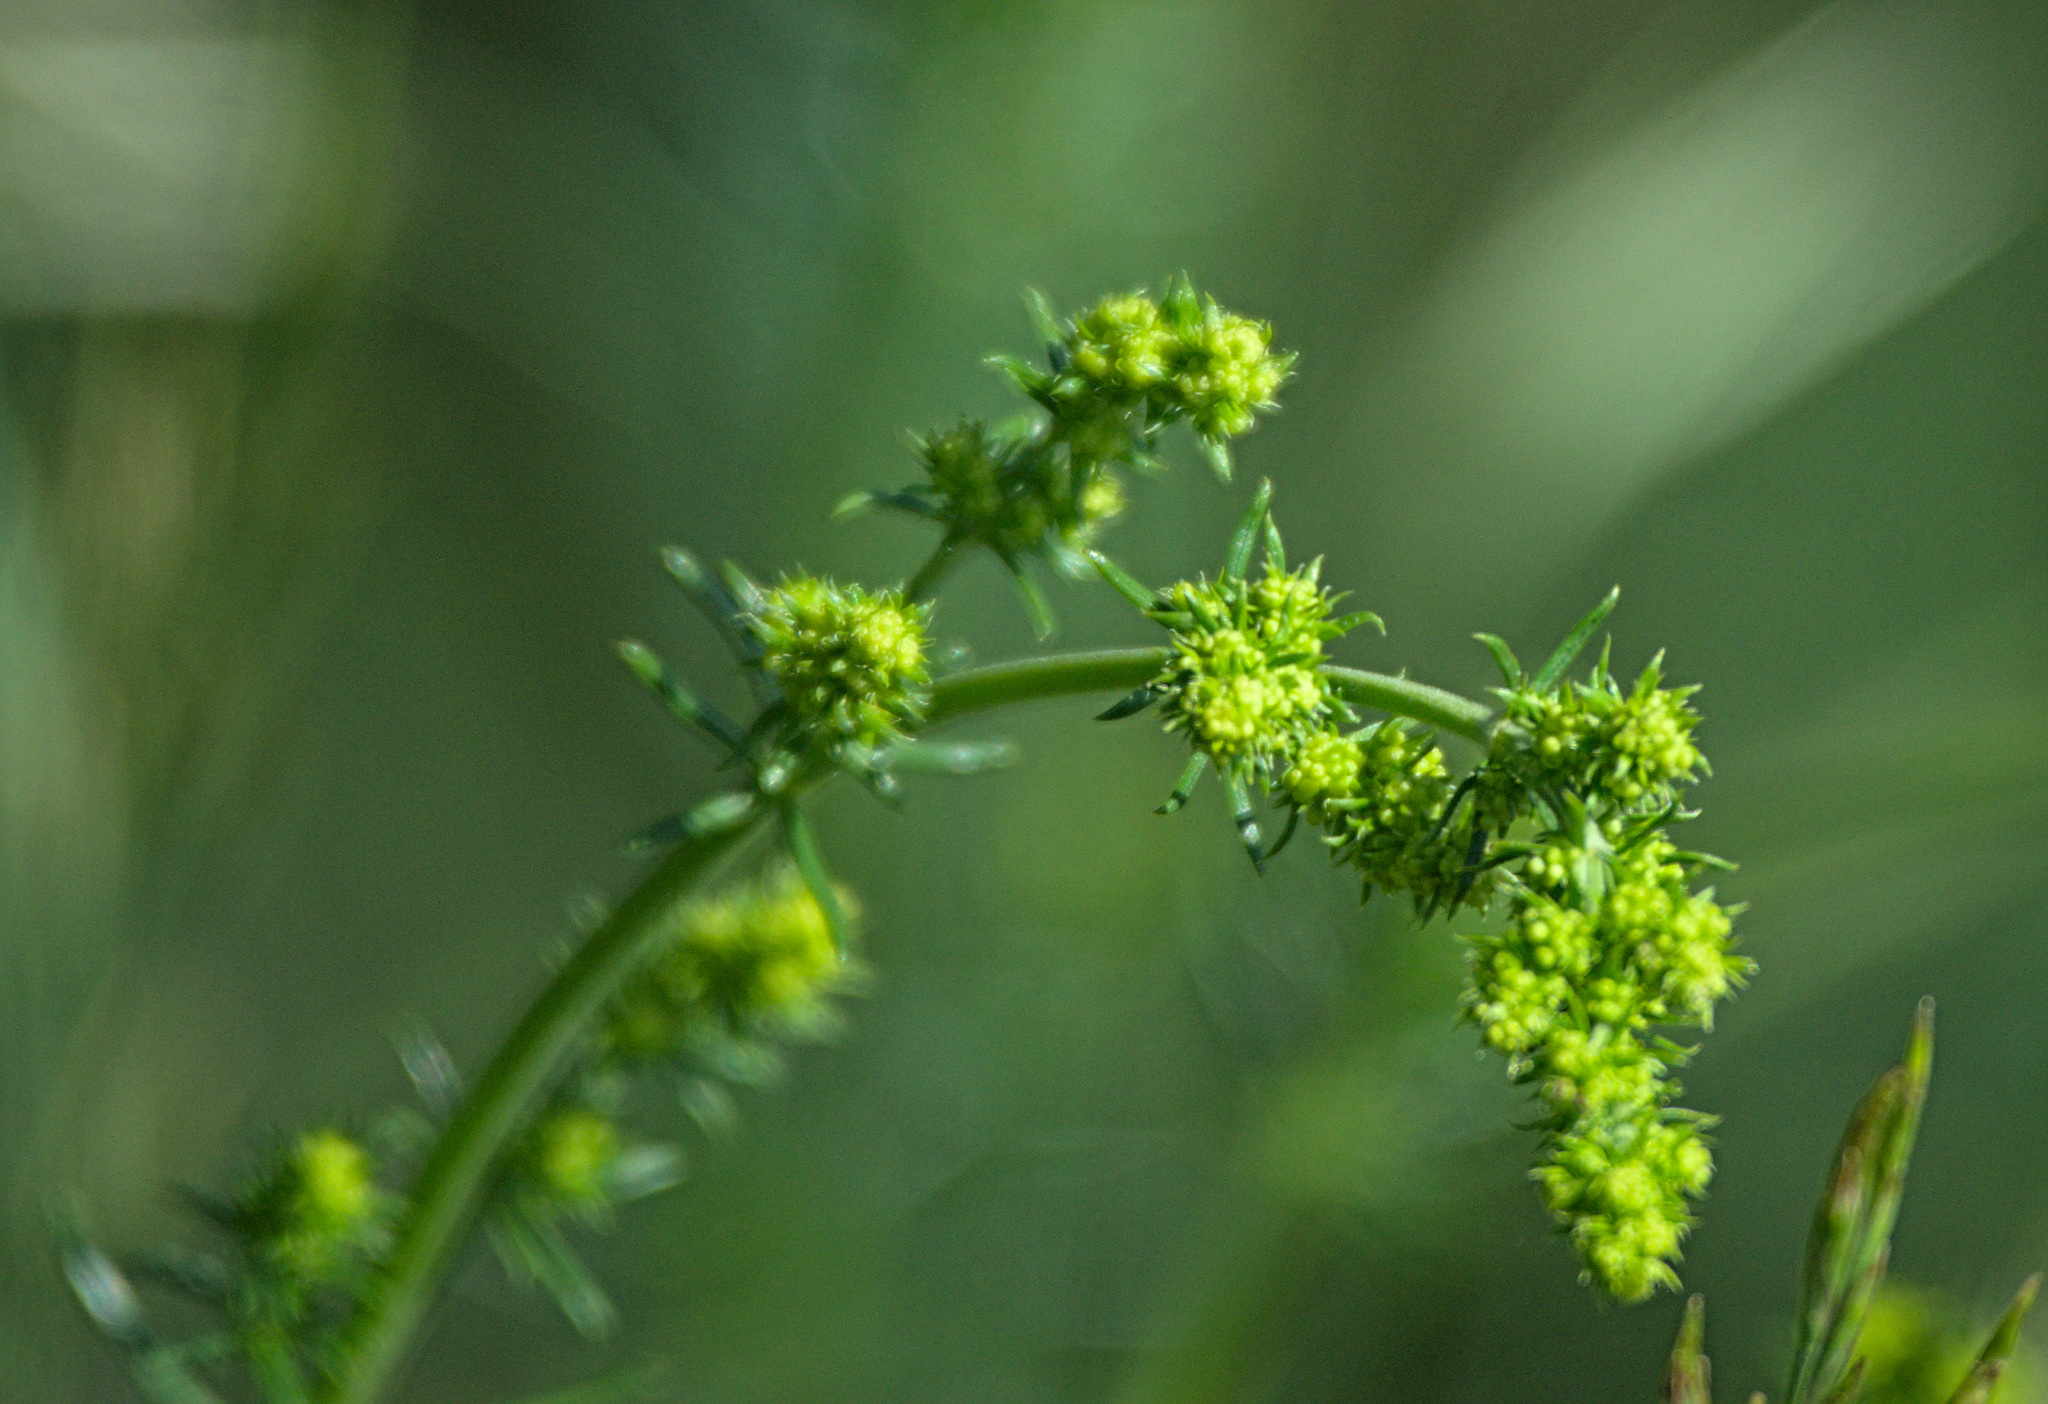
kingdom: Plantae
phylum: Tracheophyta
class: Magnoliopsida
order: Gentianales
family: Rubiaceae
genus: Galium
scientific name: Galium verum
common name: Lady's bedstraw
